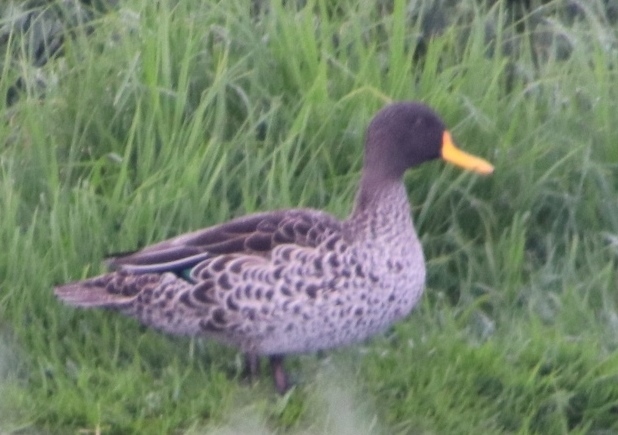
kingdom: Animalia
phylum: Chordata
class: Aves
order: Anseriformes
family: Anatidae
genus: Anas
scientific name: Anas undulata
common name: Yellow-billed duck
